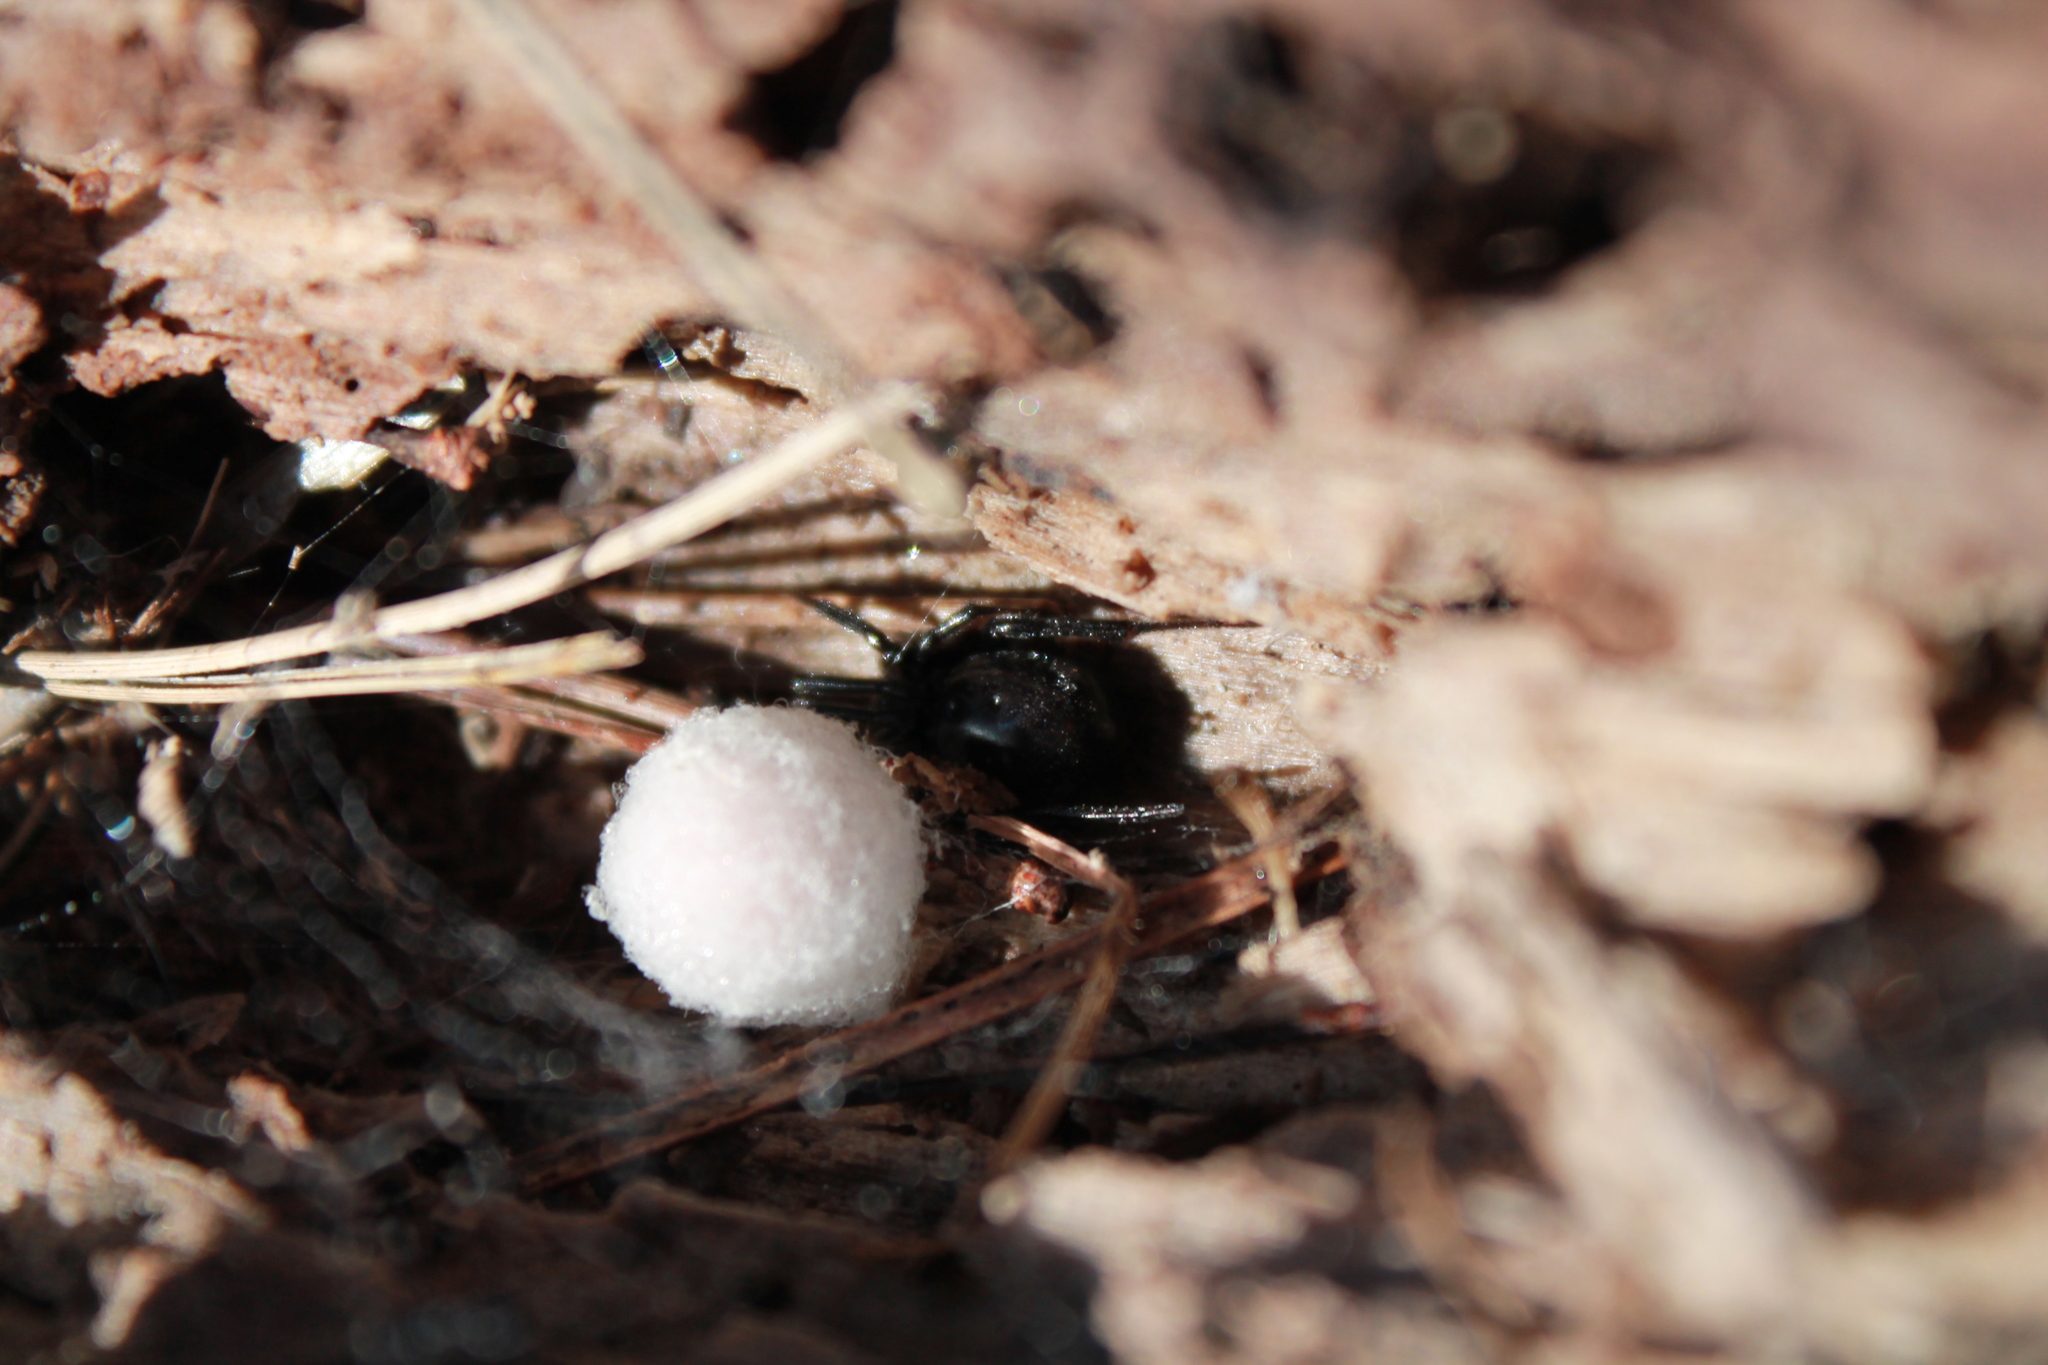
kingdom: Animalia
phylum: Arthropoda
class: Arachnida
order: Araneae
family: Theridiidae
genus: Steatoda
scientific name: Steatoda capensis
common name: Cobweb weaver
